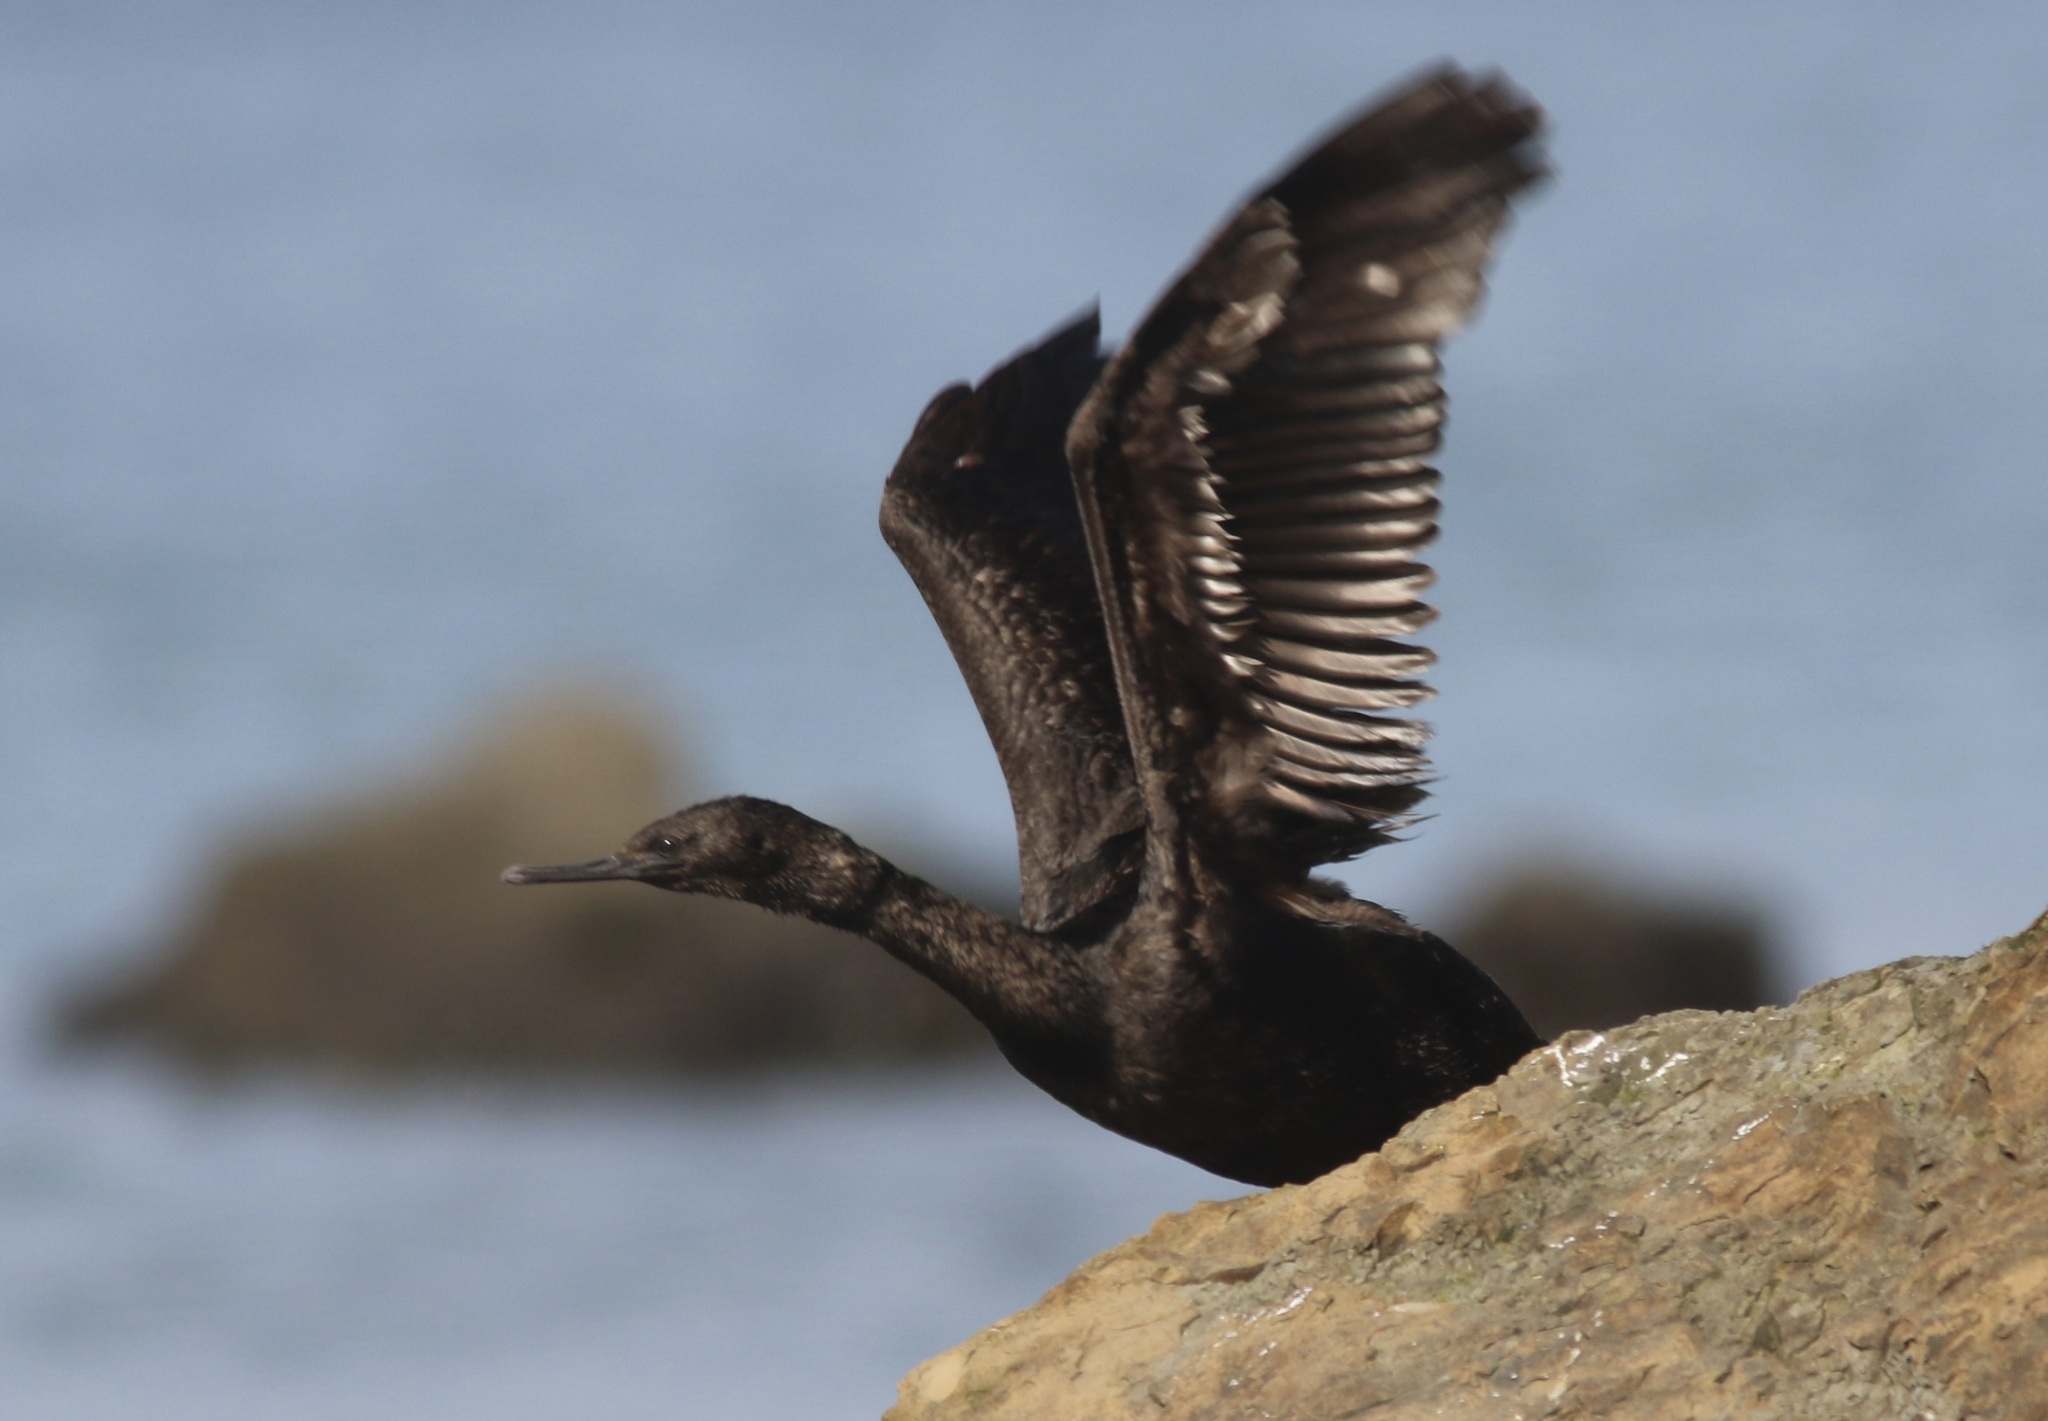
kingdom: Animalia
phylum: Chordata
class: Aves
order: Suliformes
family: Phalacrocoracidae
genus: Phalacrocorax
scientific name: Phalacrocorax pelagicus
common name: Pelagic cormorant
